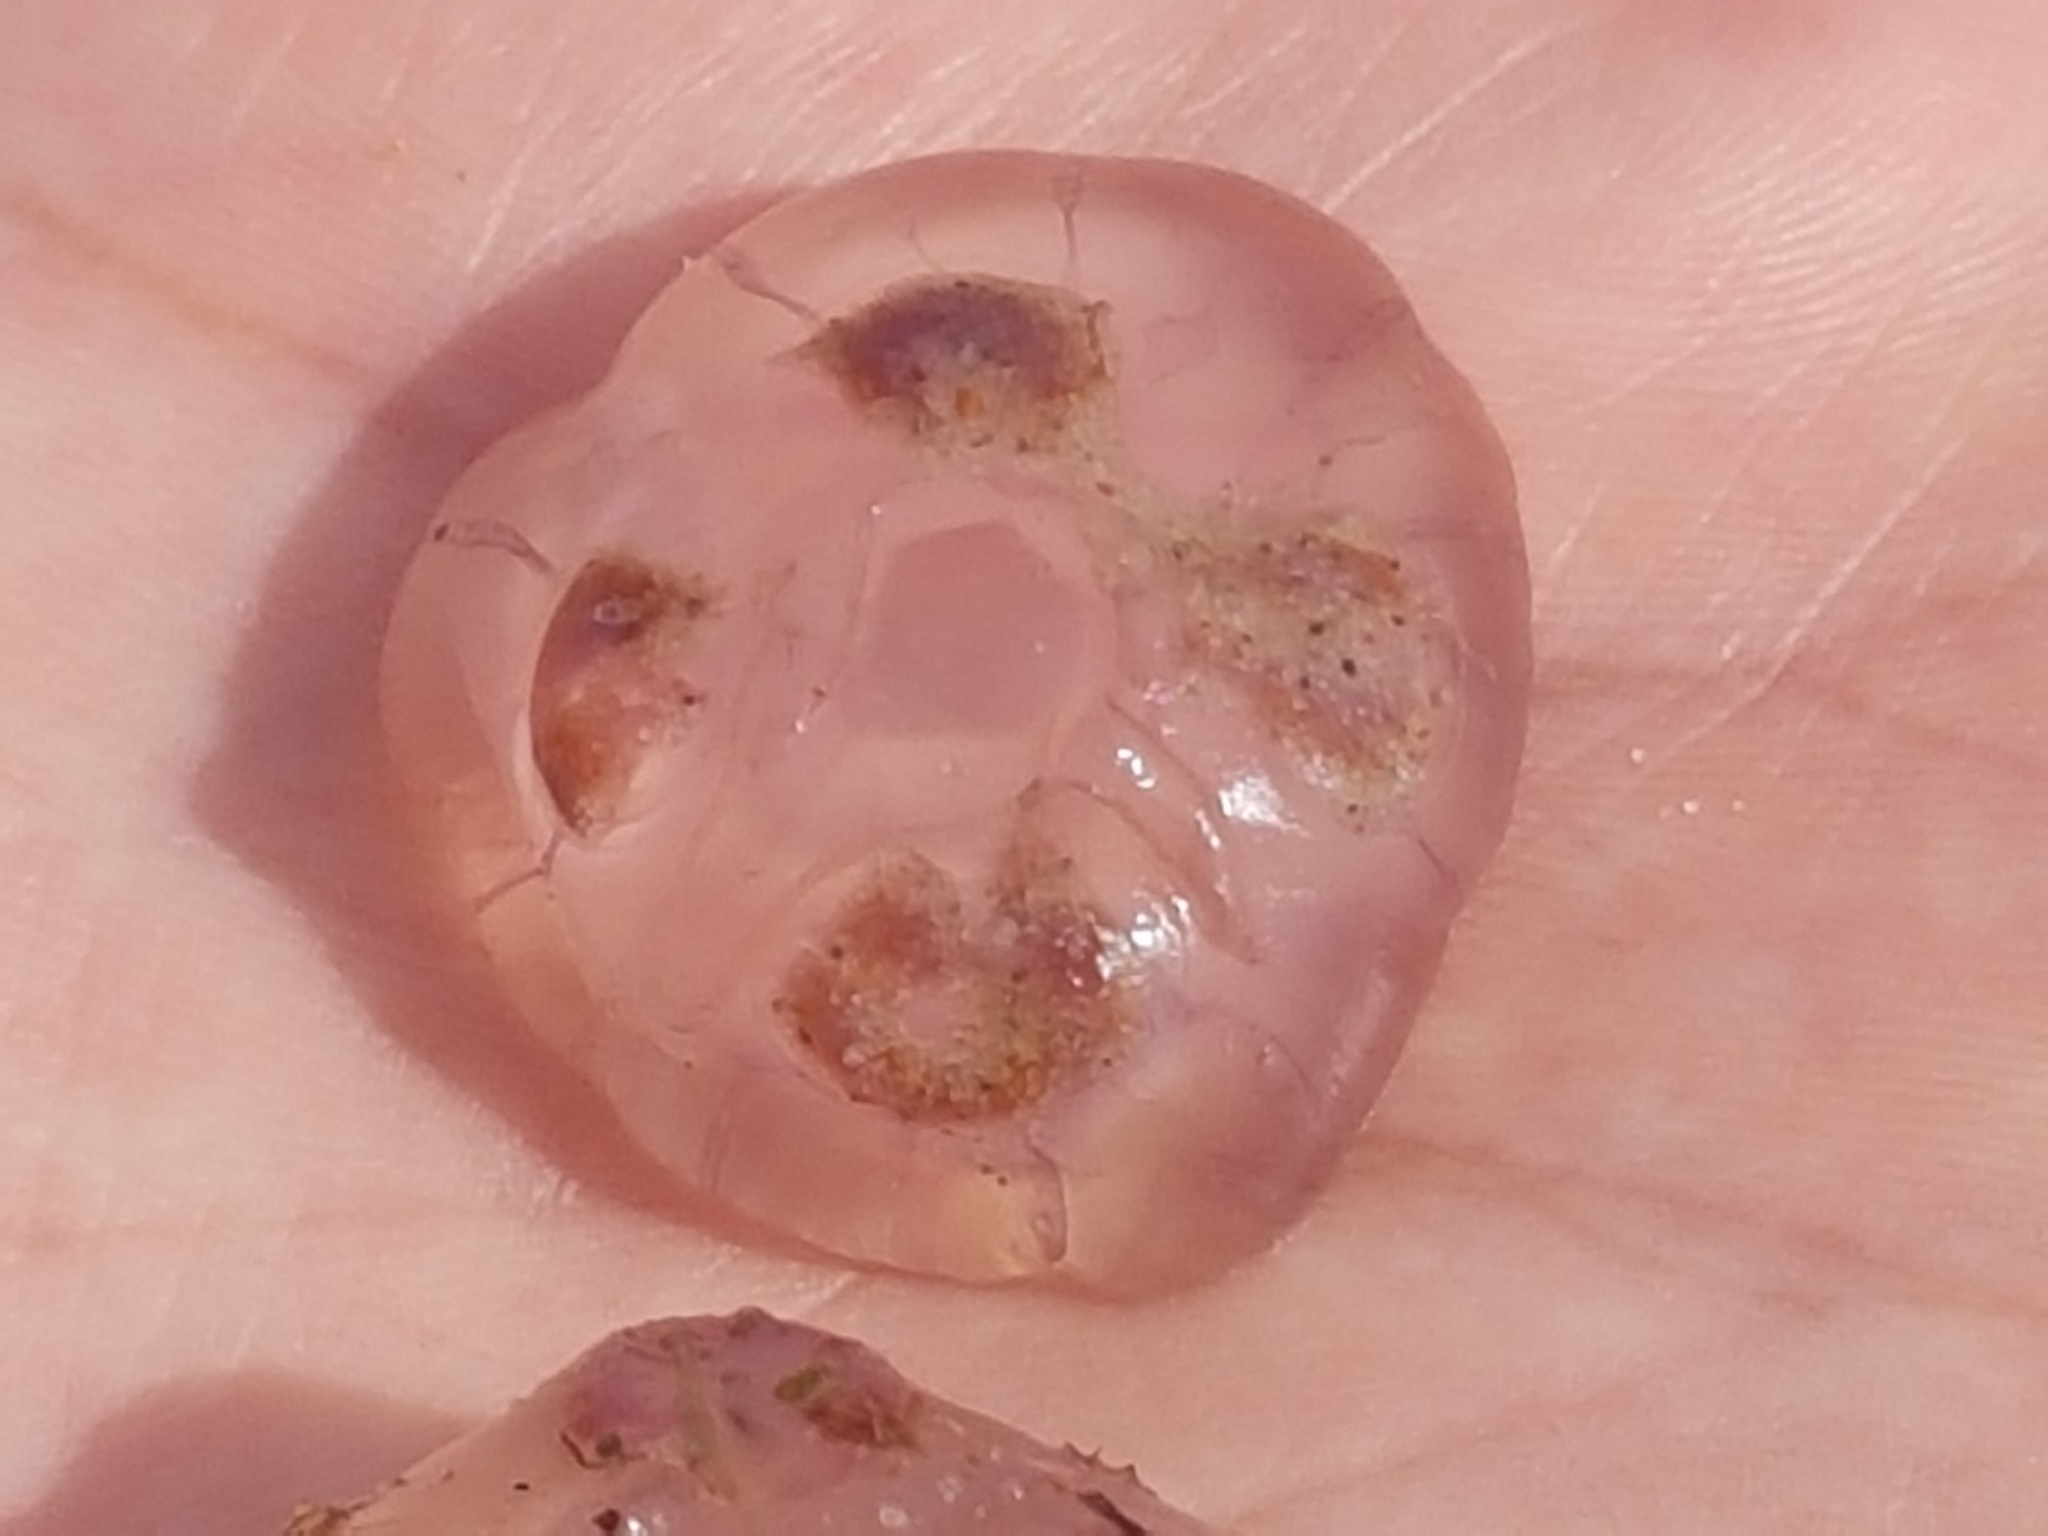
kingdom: Animalia
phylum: Cnidaria
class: Scyphozoa
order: Semaeostomeae
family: Ulmaridae
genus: Aurelia
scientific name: Aurelia aurita
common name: Moon jellyfish
